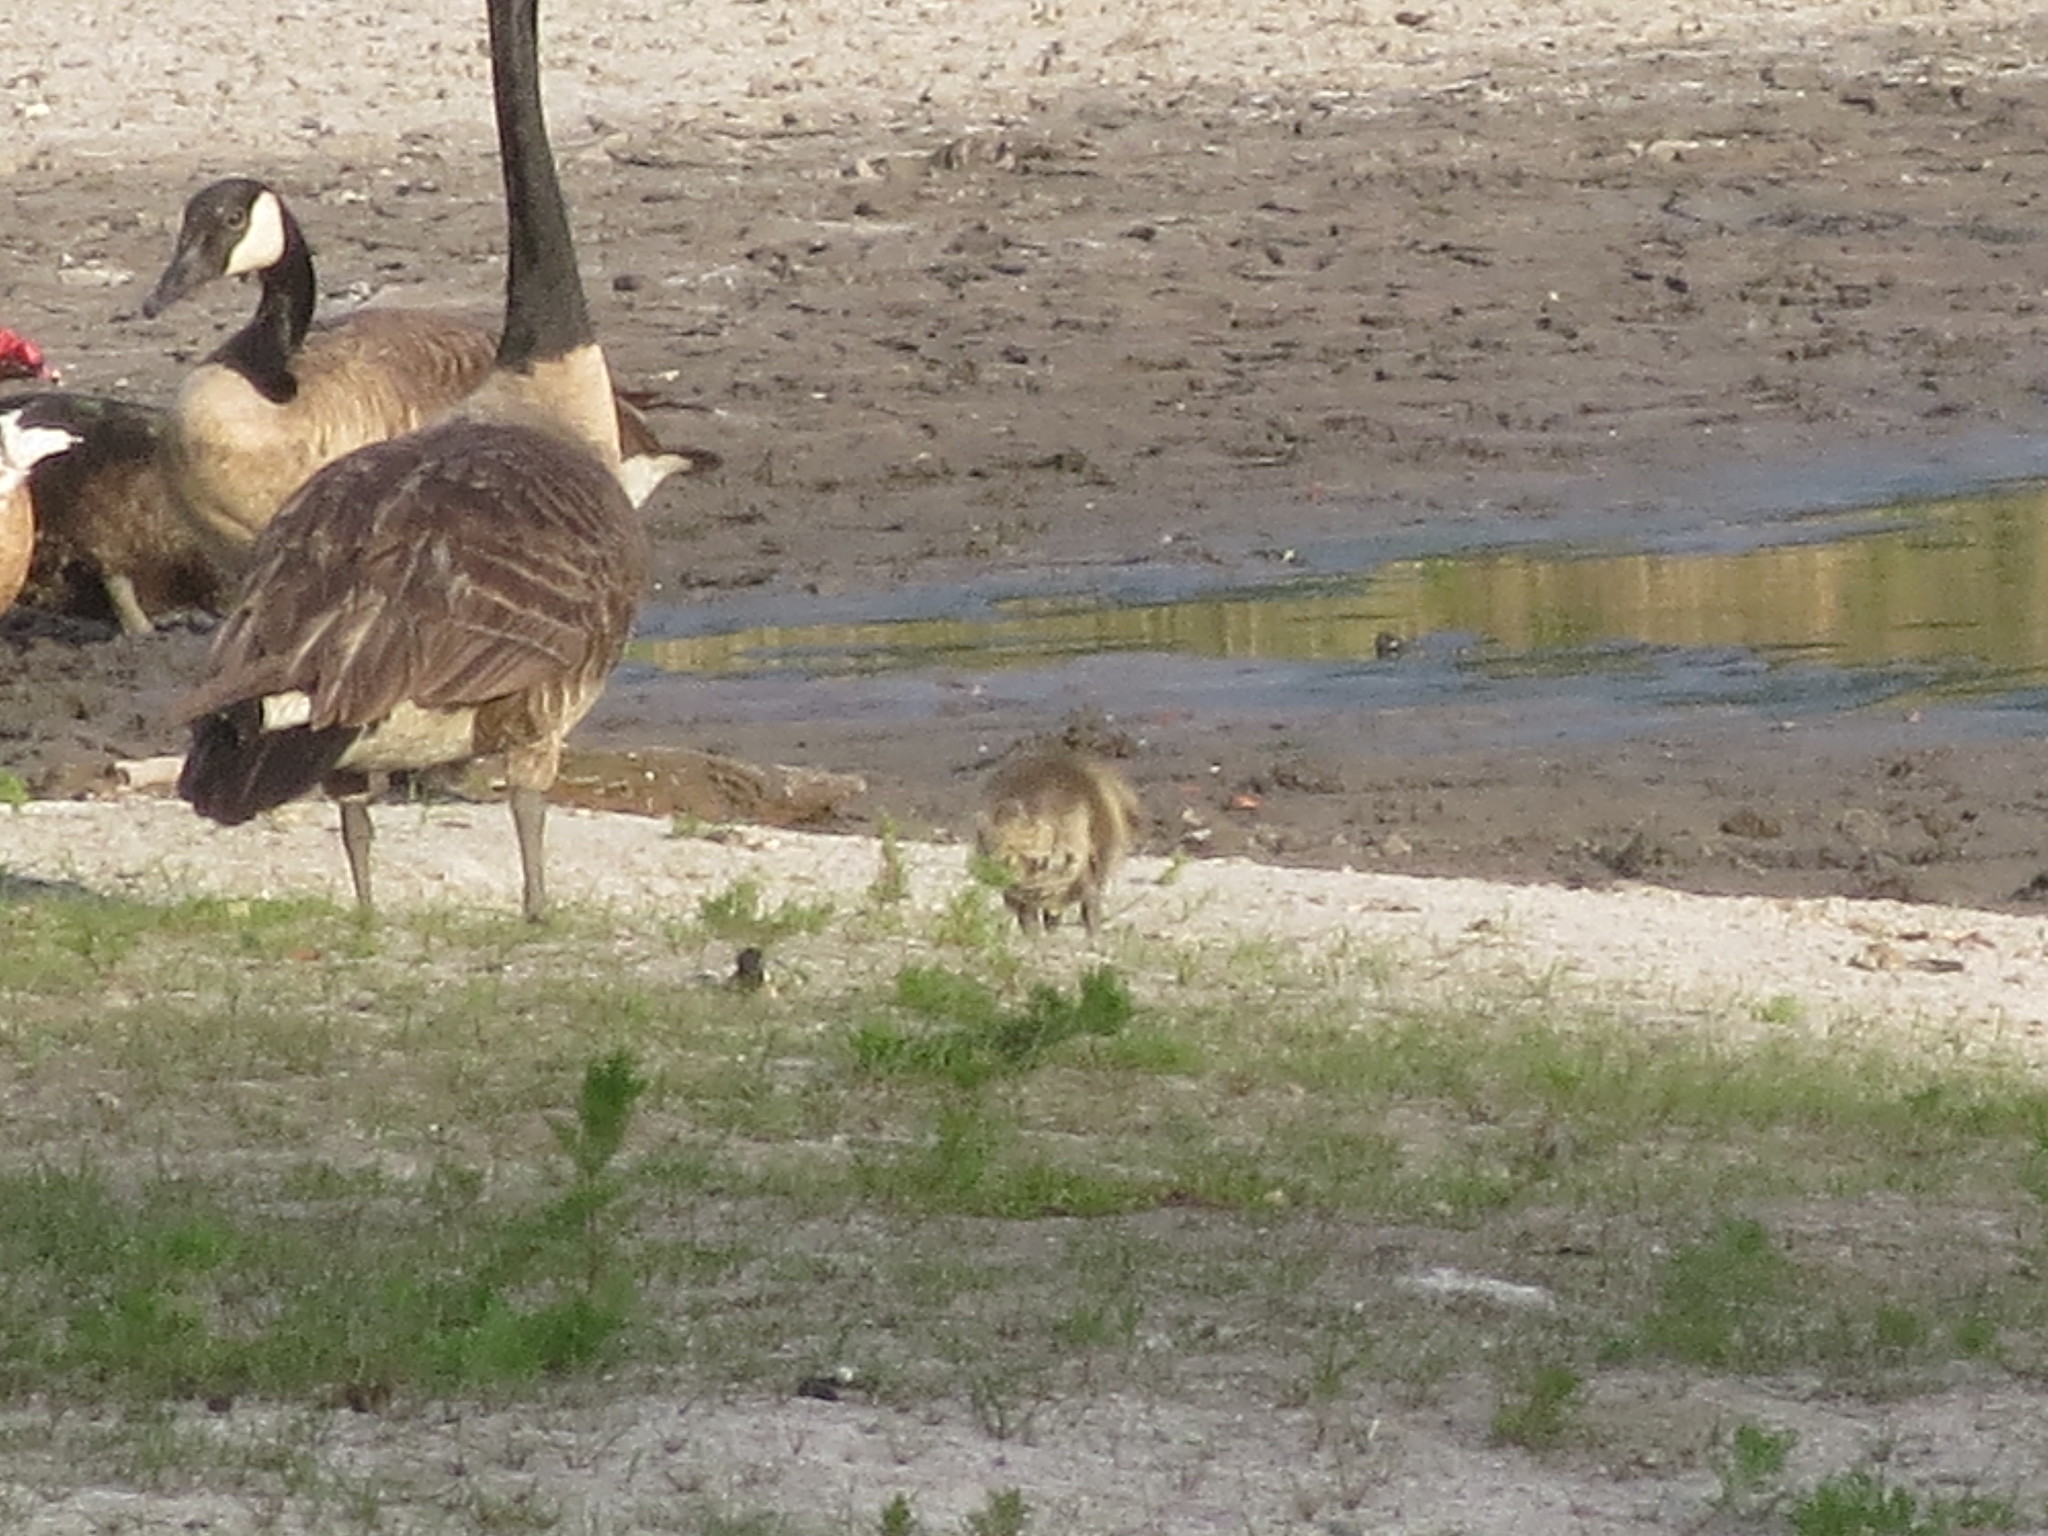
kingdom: Animalia
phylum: Chordata
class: Aves
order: Anseriformes
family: Anatidae
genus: Branta
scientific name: Branta canadensis
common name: Canada goose
